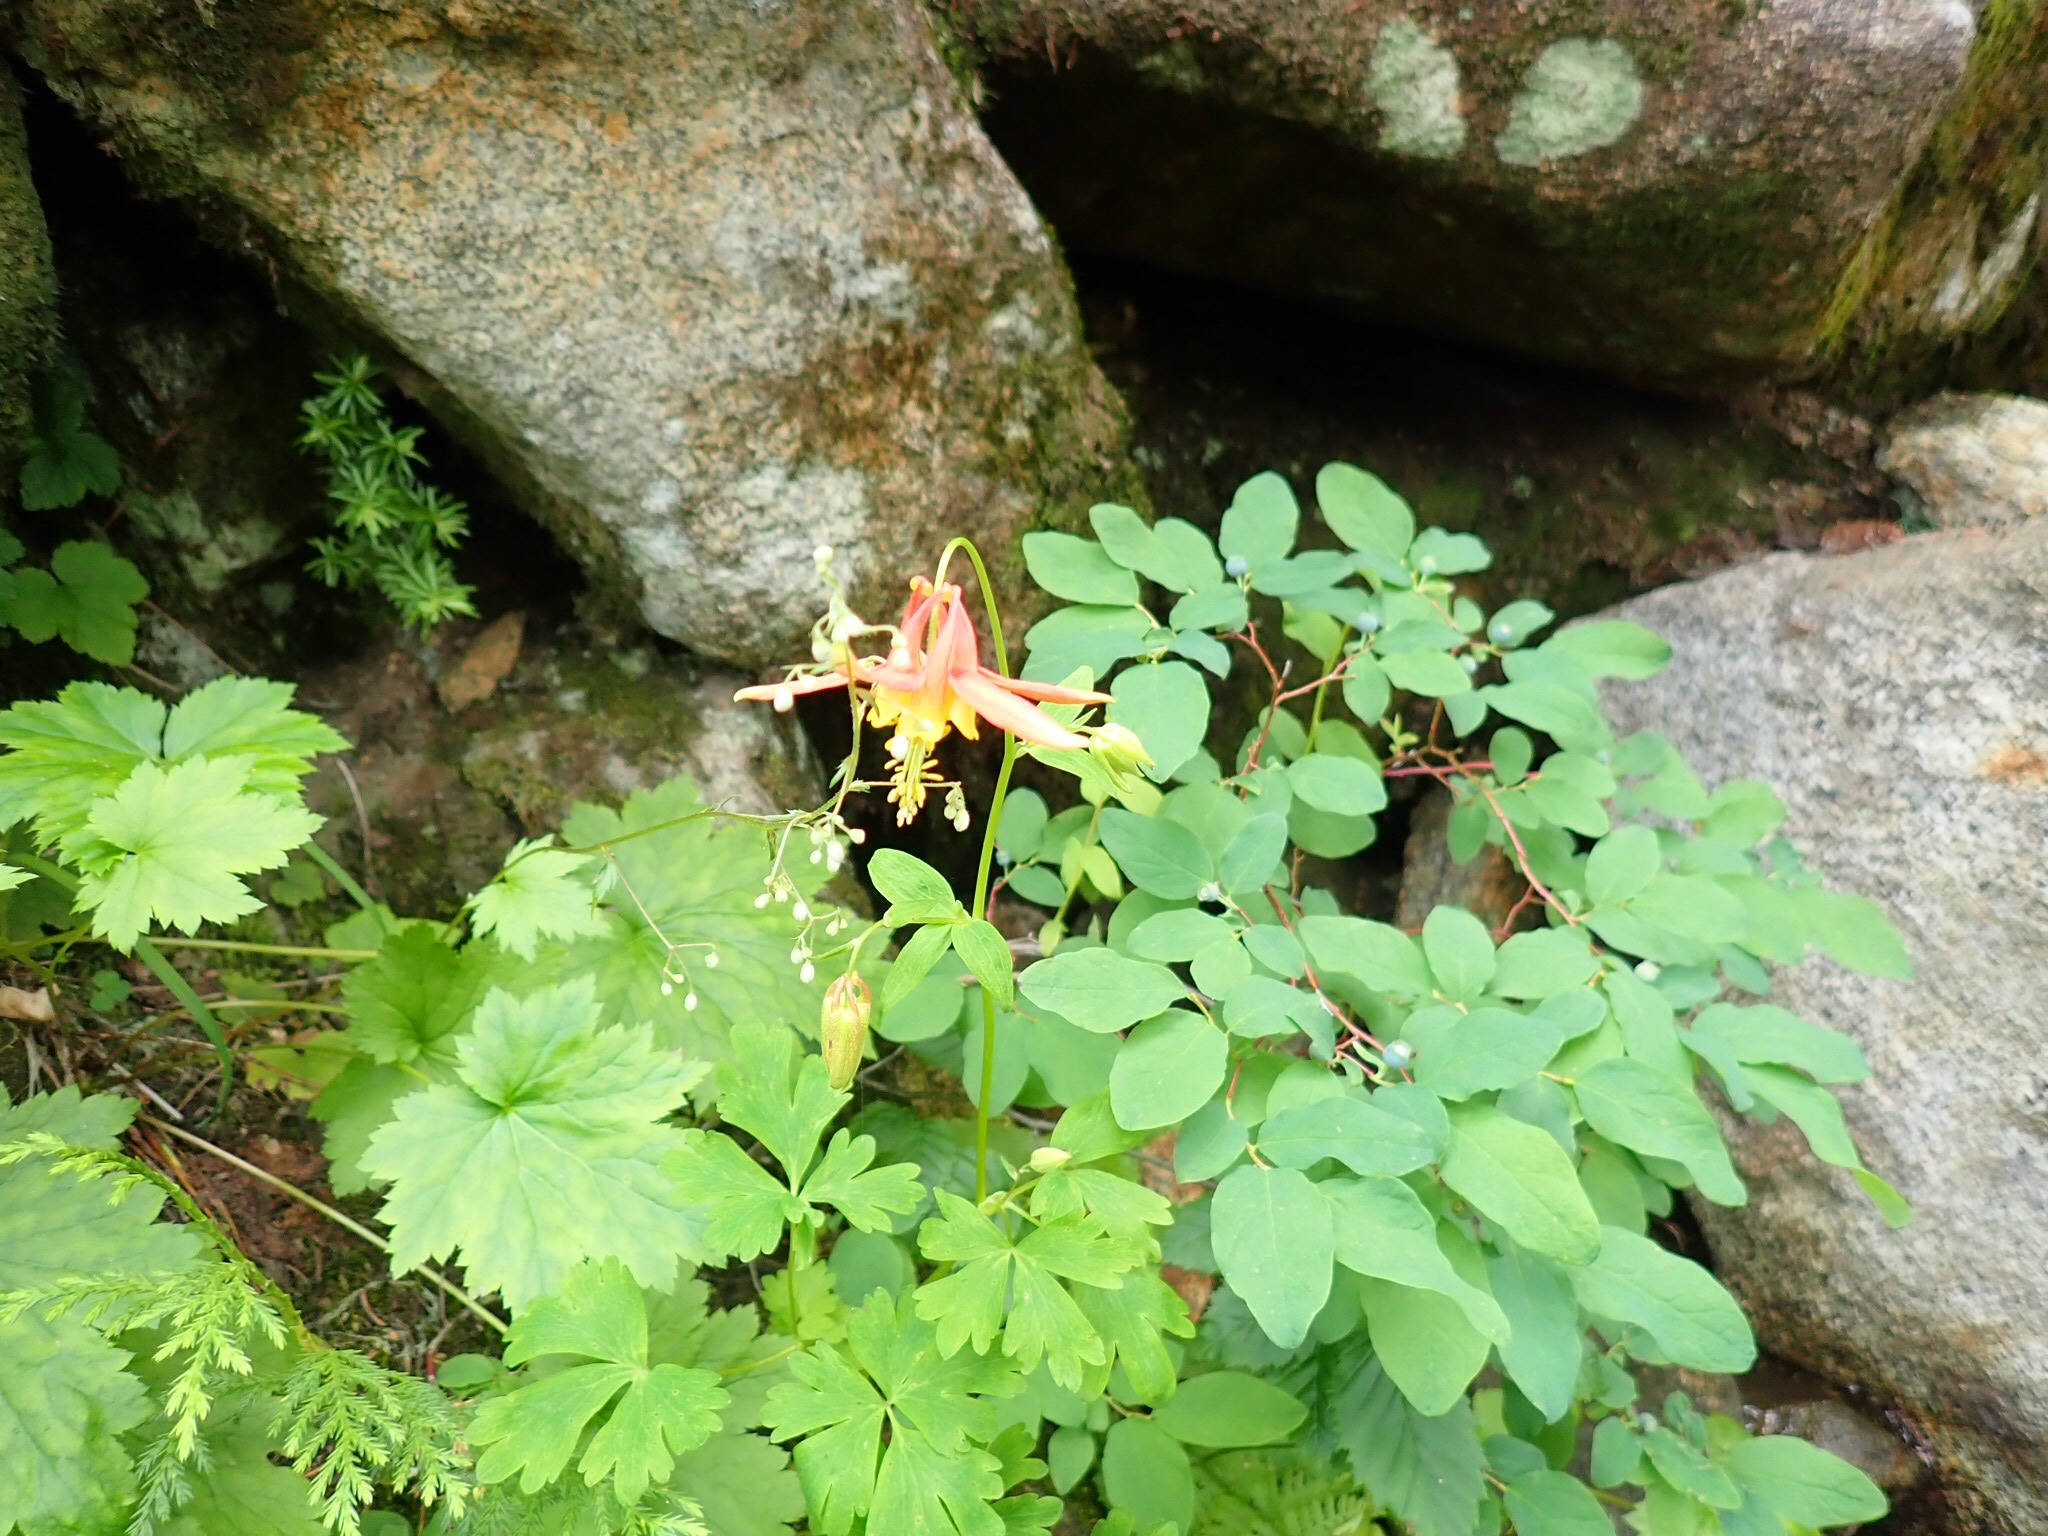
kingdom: Plantae
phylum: Tracheophyta
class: Magnoliopsida
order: Ranunculales
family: Ranunculaceae
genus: Aquilegia
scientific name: Aquilegia formosa
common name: Sitka columbine
